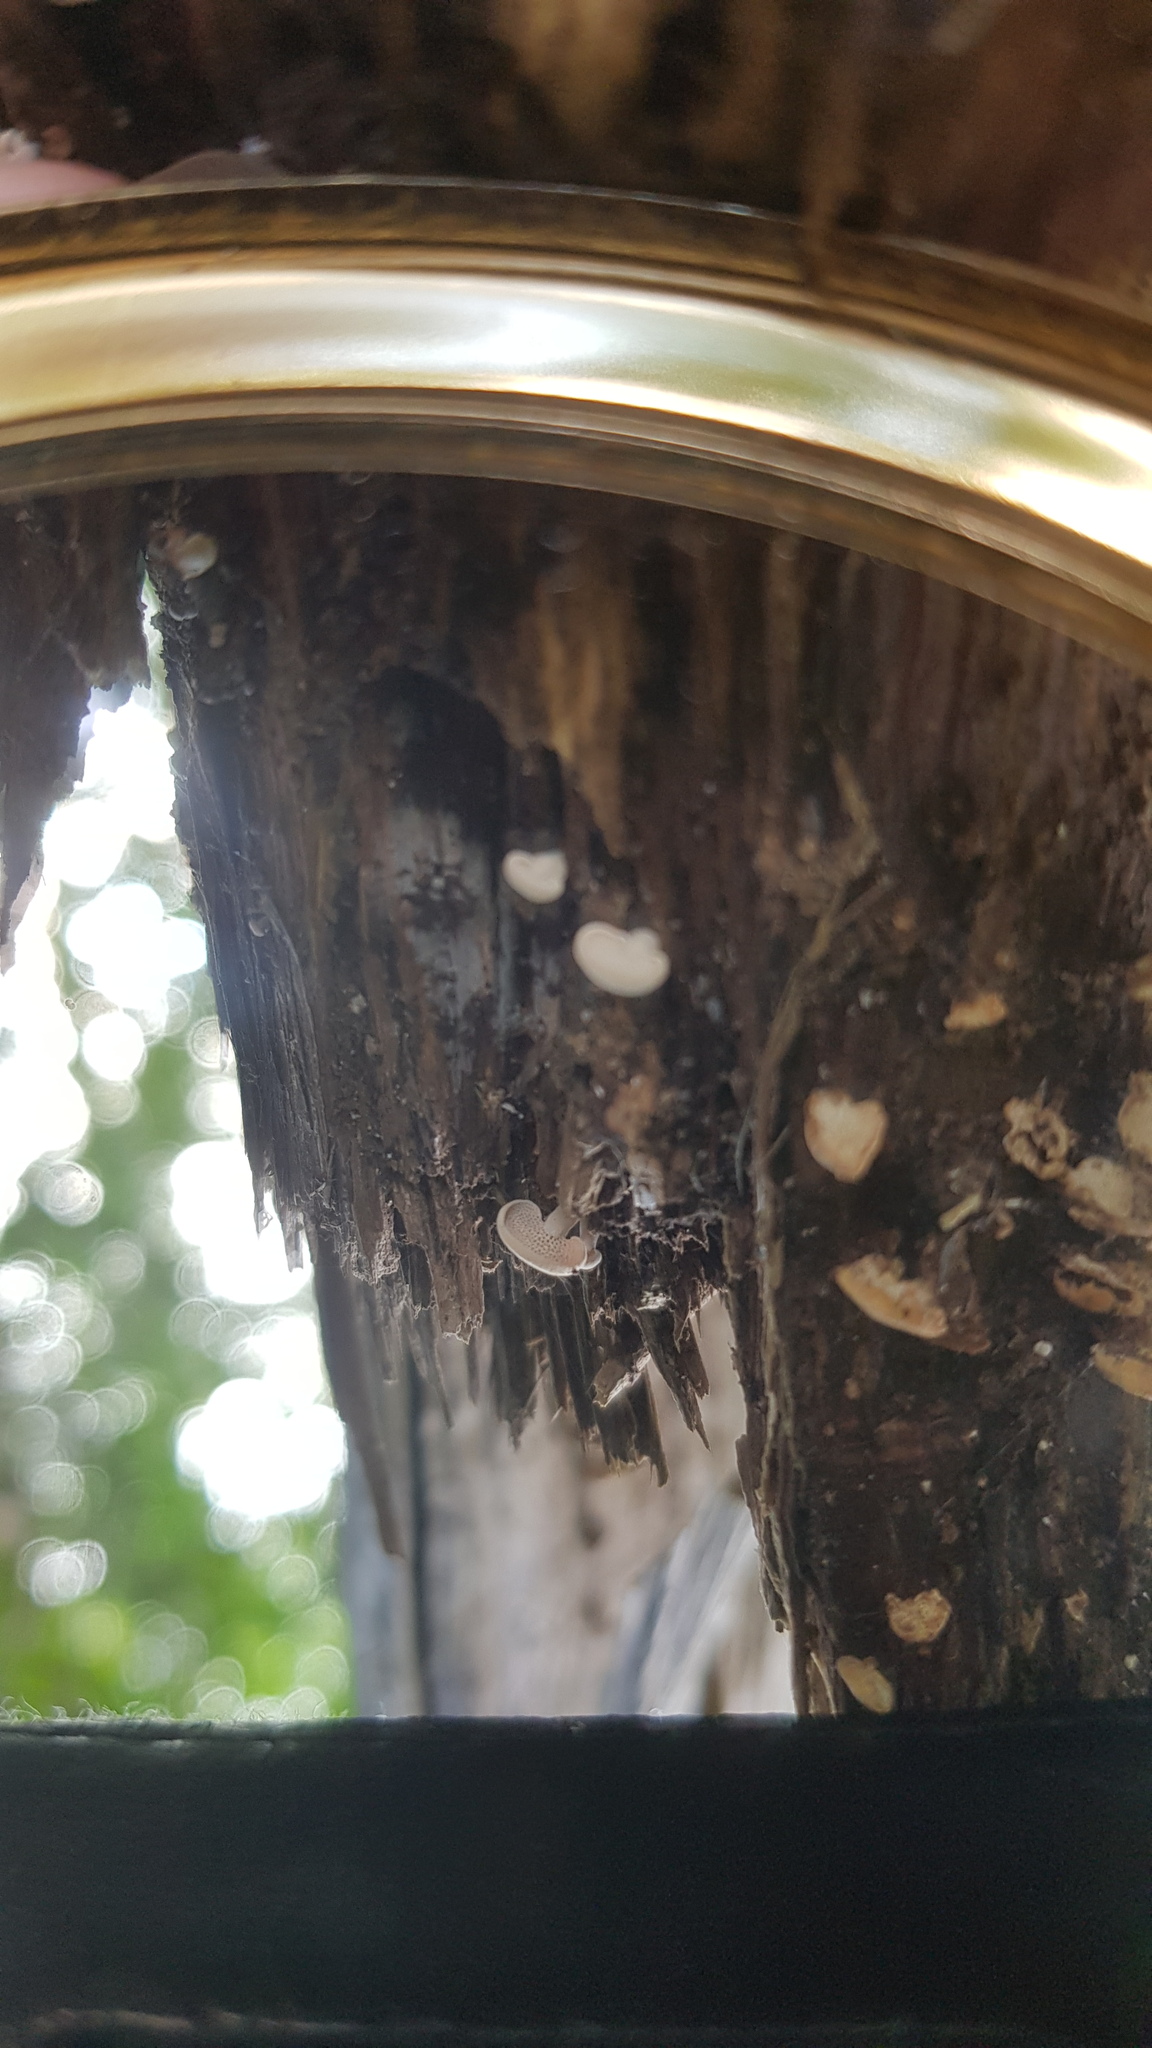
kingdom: Fungi
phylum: Basidiomycota
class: Agaricomycetes
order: Agaricales
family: Mycenaceae
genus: Panellus
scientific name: Panellus luxfilamentus
